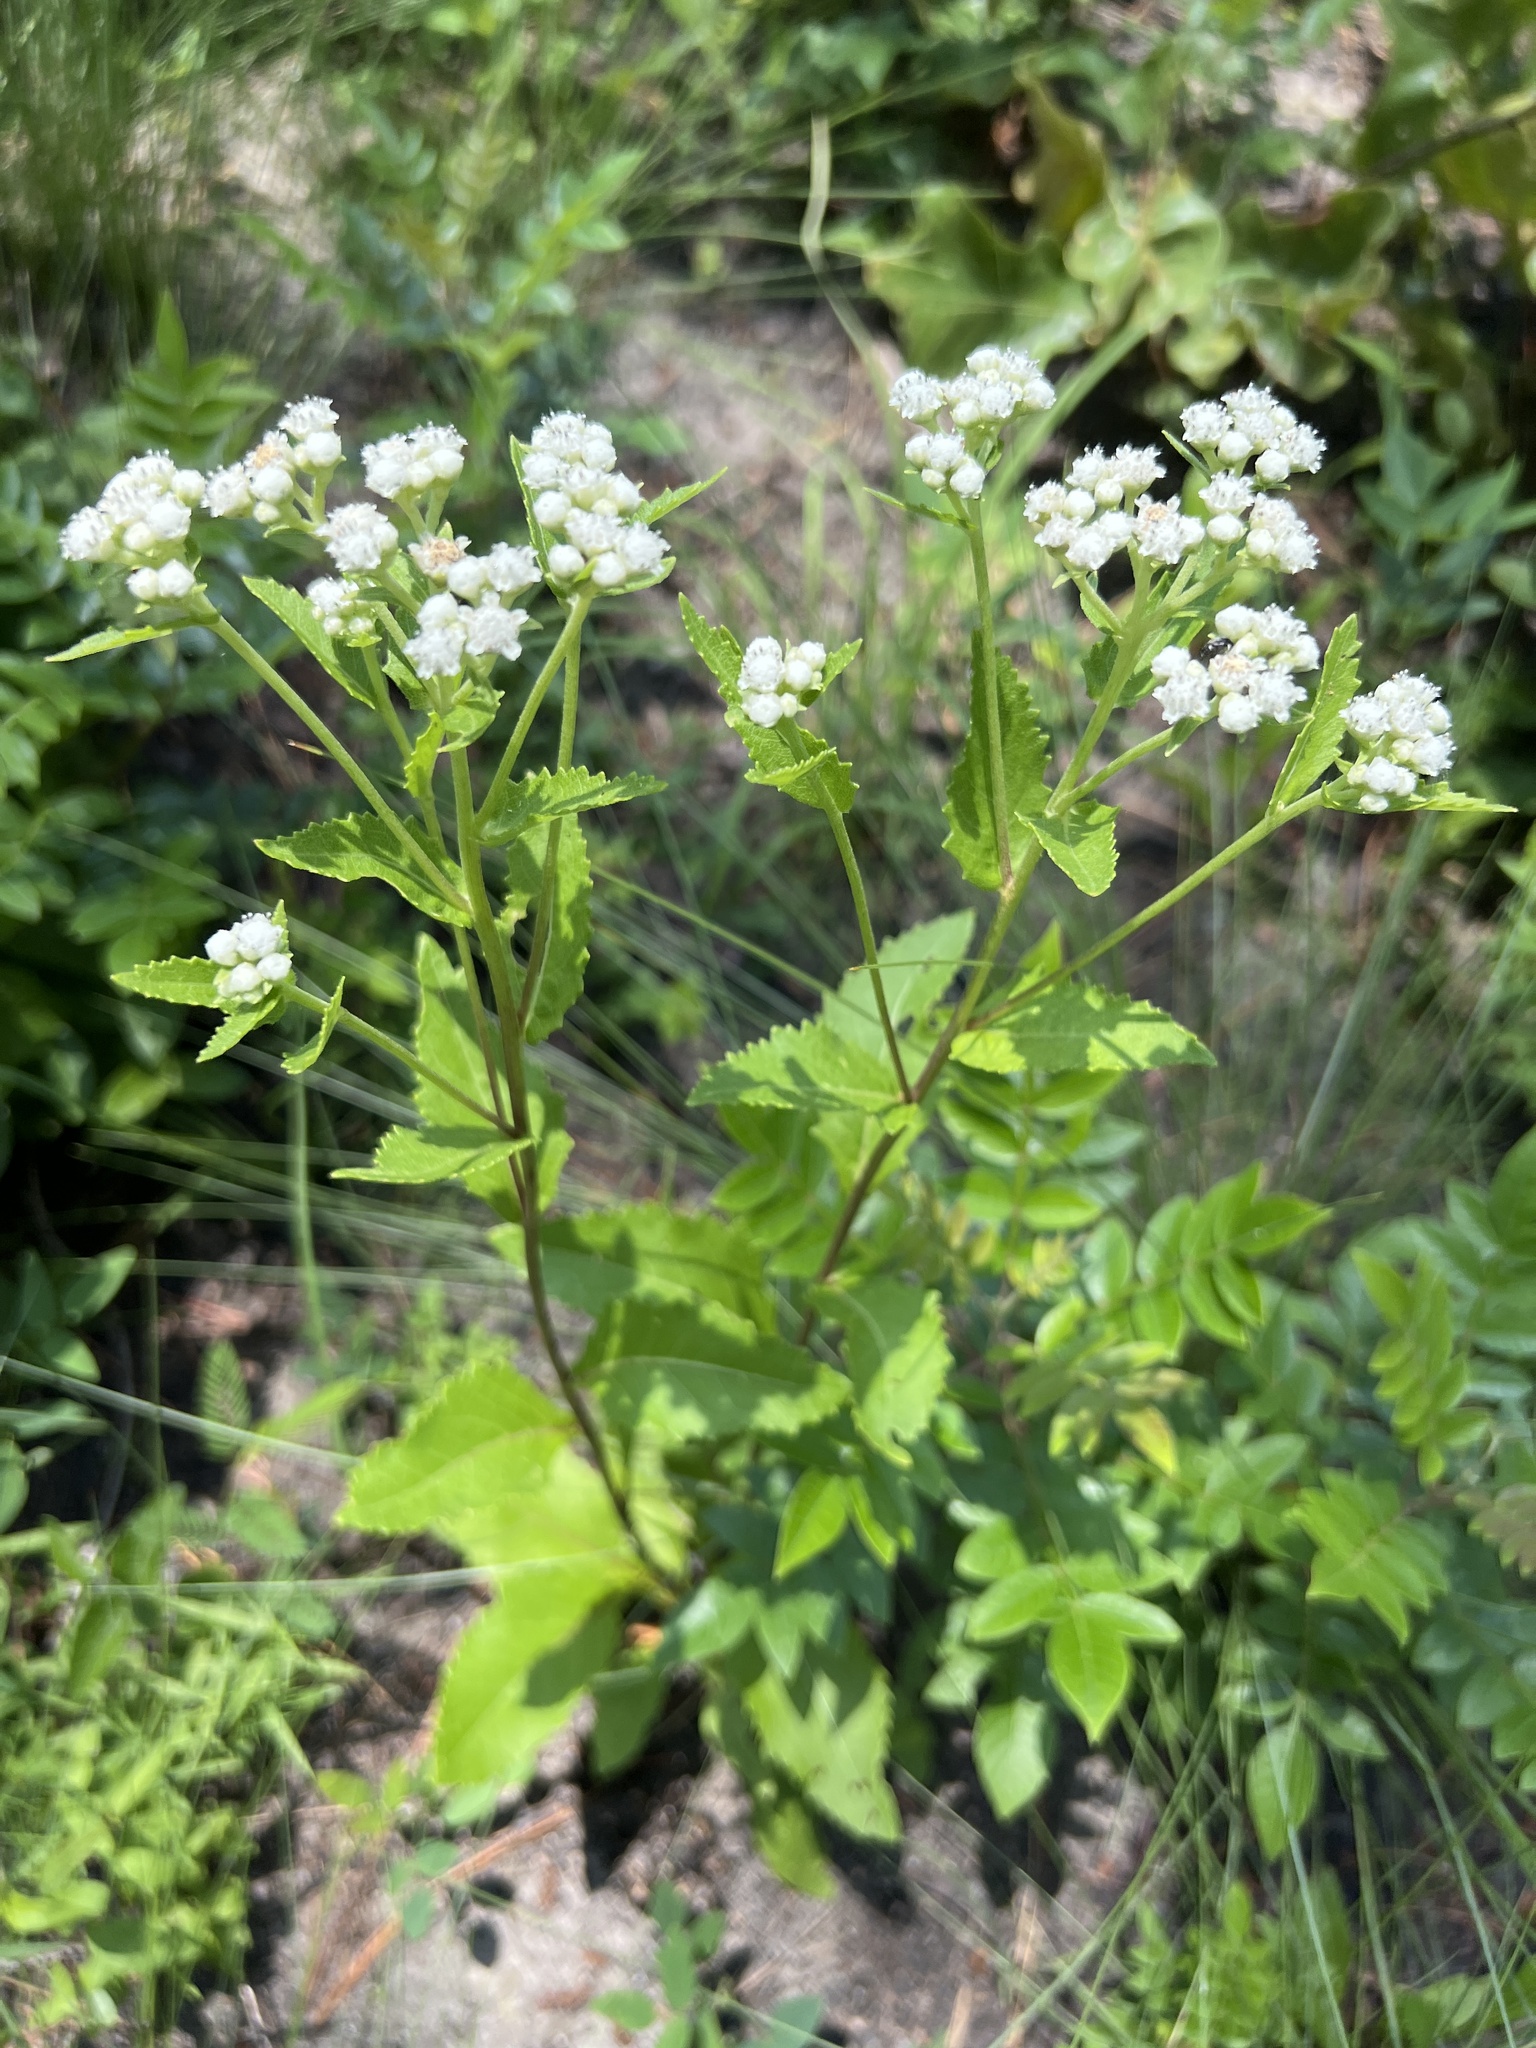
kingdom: Plantae
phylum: Tracheophyta
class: Magnoliopsida
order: Asterales
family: Asteraceae
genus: Parthenium
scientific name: Parthenium integrifolium
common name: American feverfew
